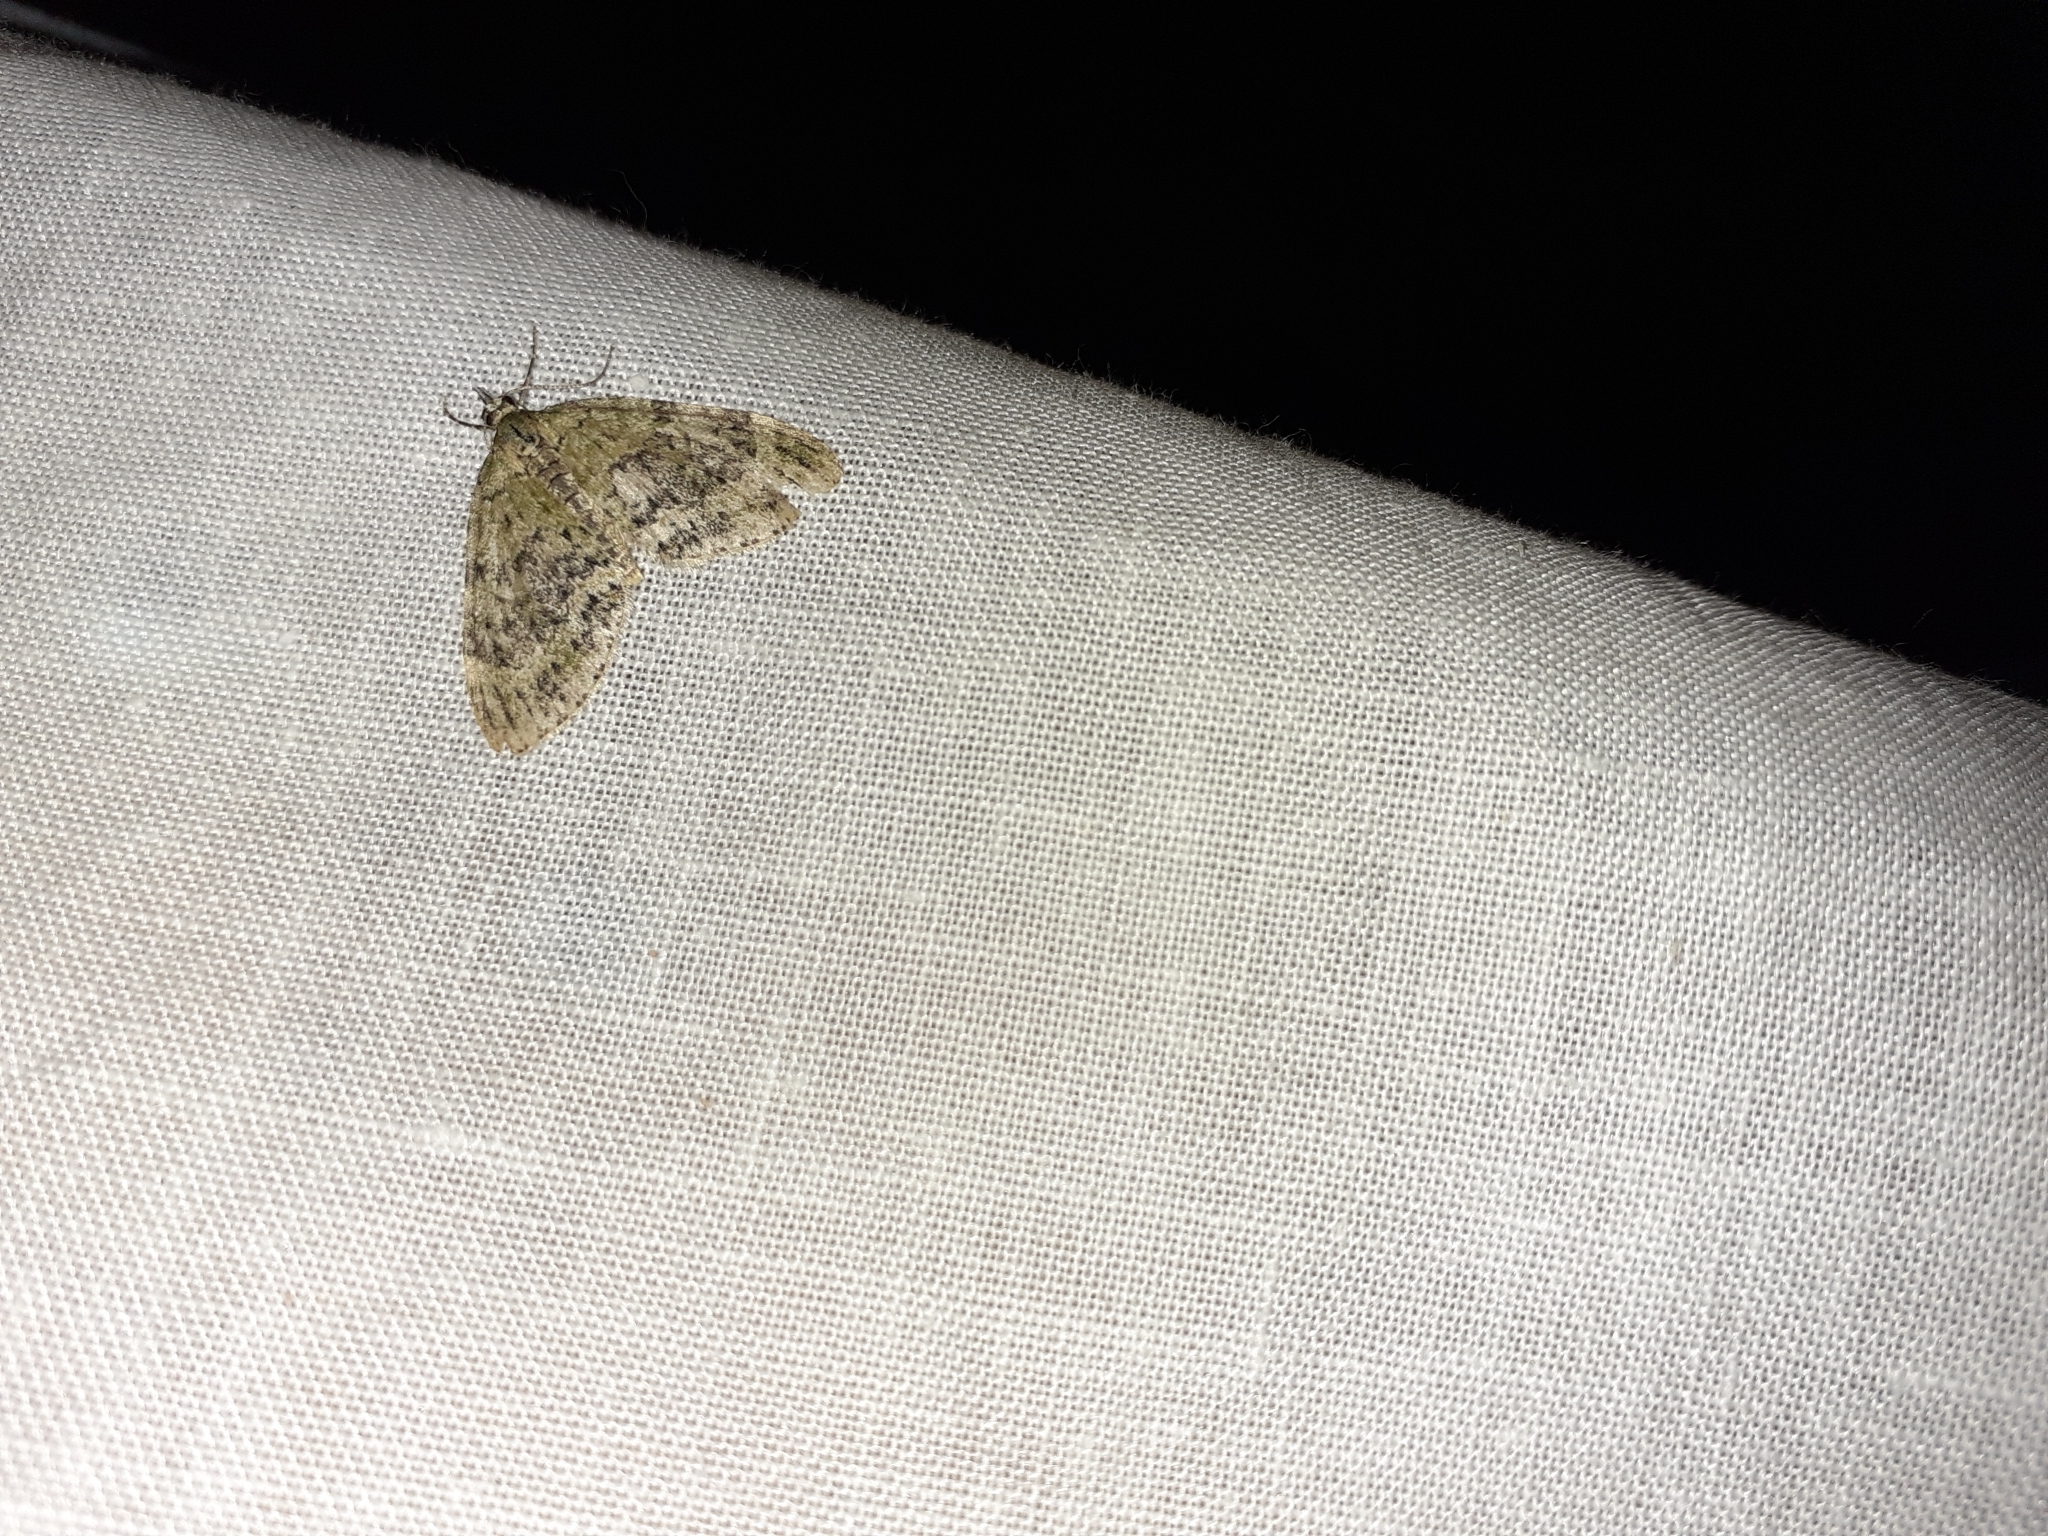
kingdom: Animalia
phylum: Arthropoda
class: Insecta
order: Lepidoptera
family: Geometridae
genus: Acasis
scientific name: Acasis viretata
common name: Yellow-barred brindle
